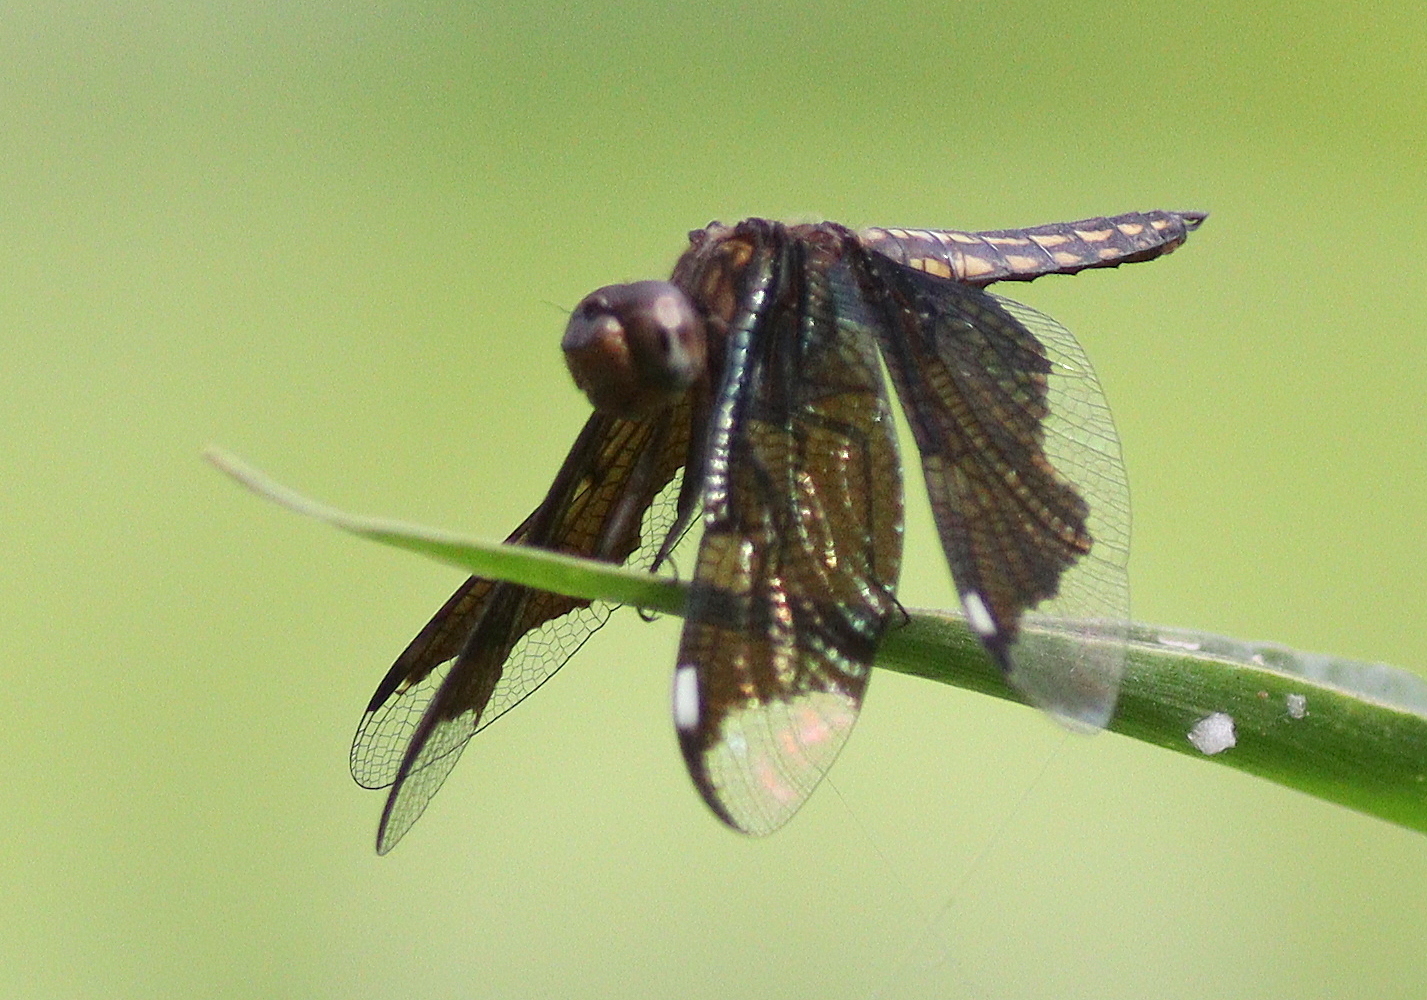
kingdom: Animalia
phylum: Arthropoda
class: Insecta
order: Odonata
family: Libellulidae
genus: Palpopleura
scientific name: Palpopleura lucia
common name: Lucia widow
